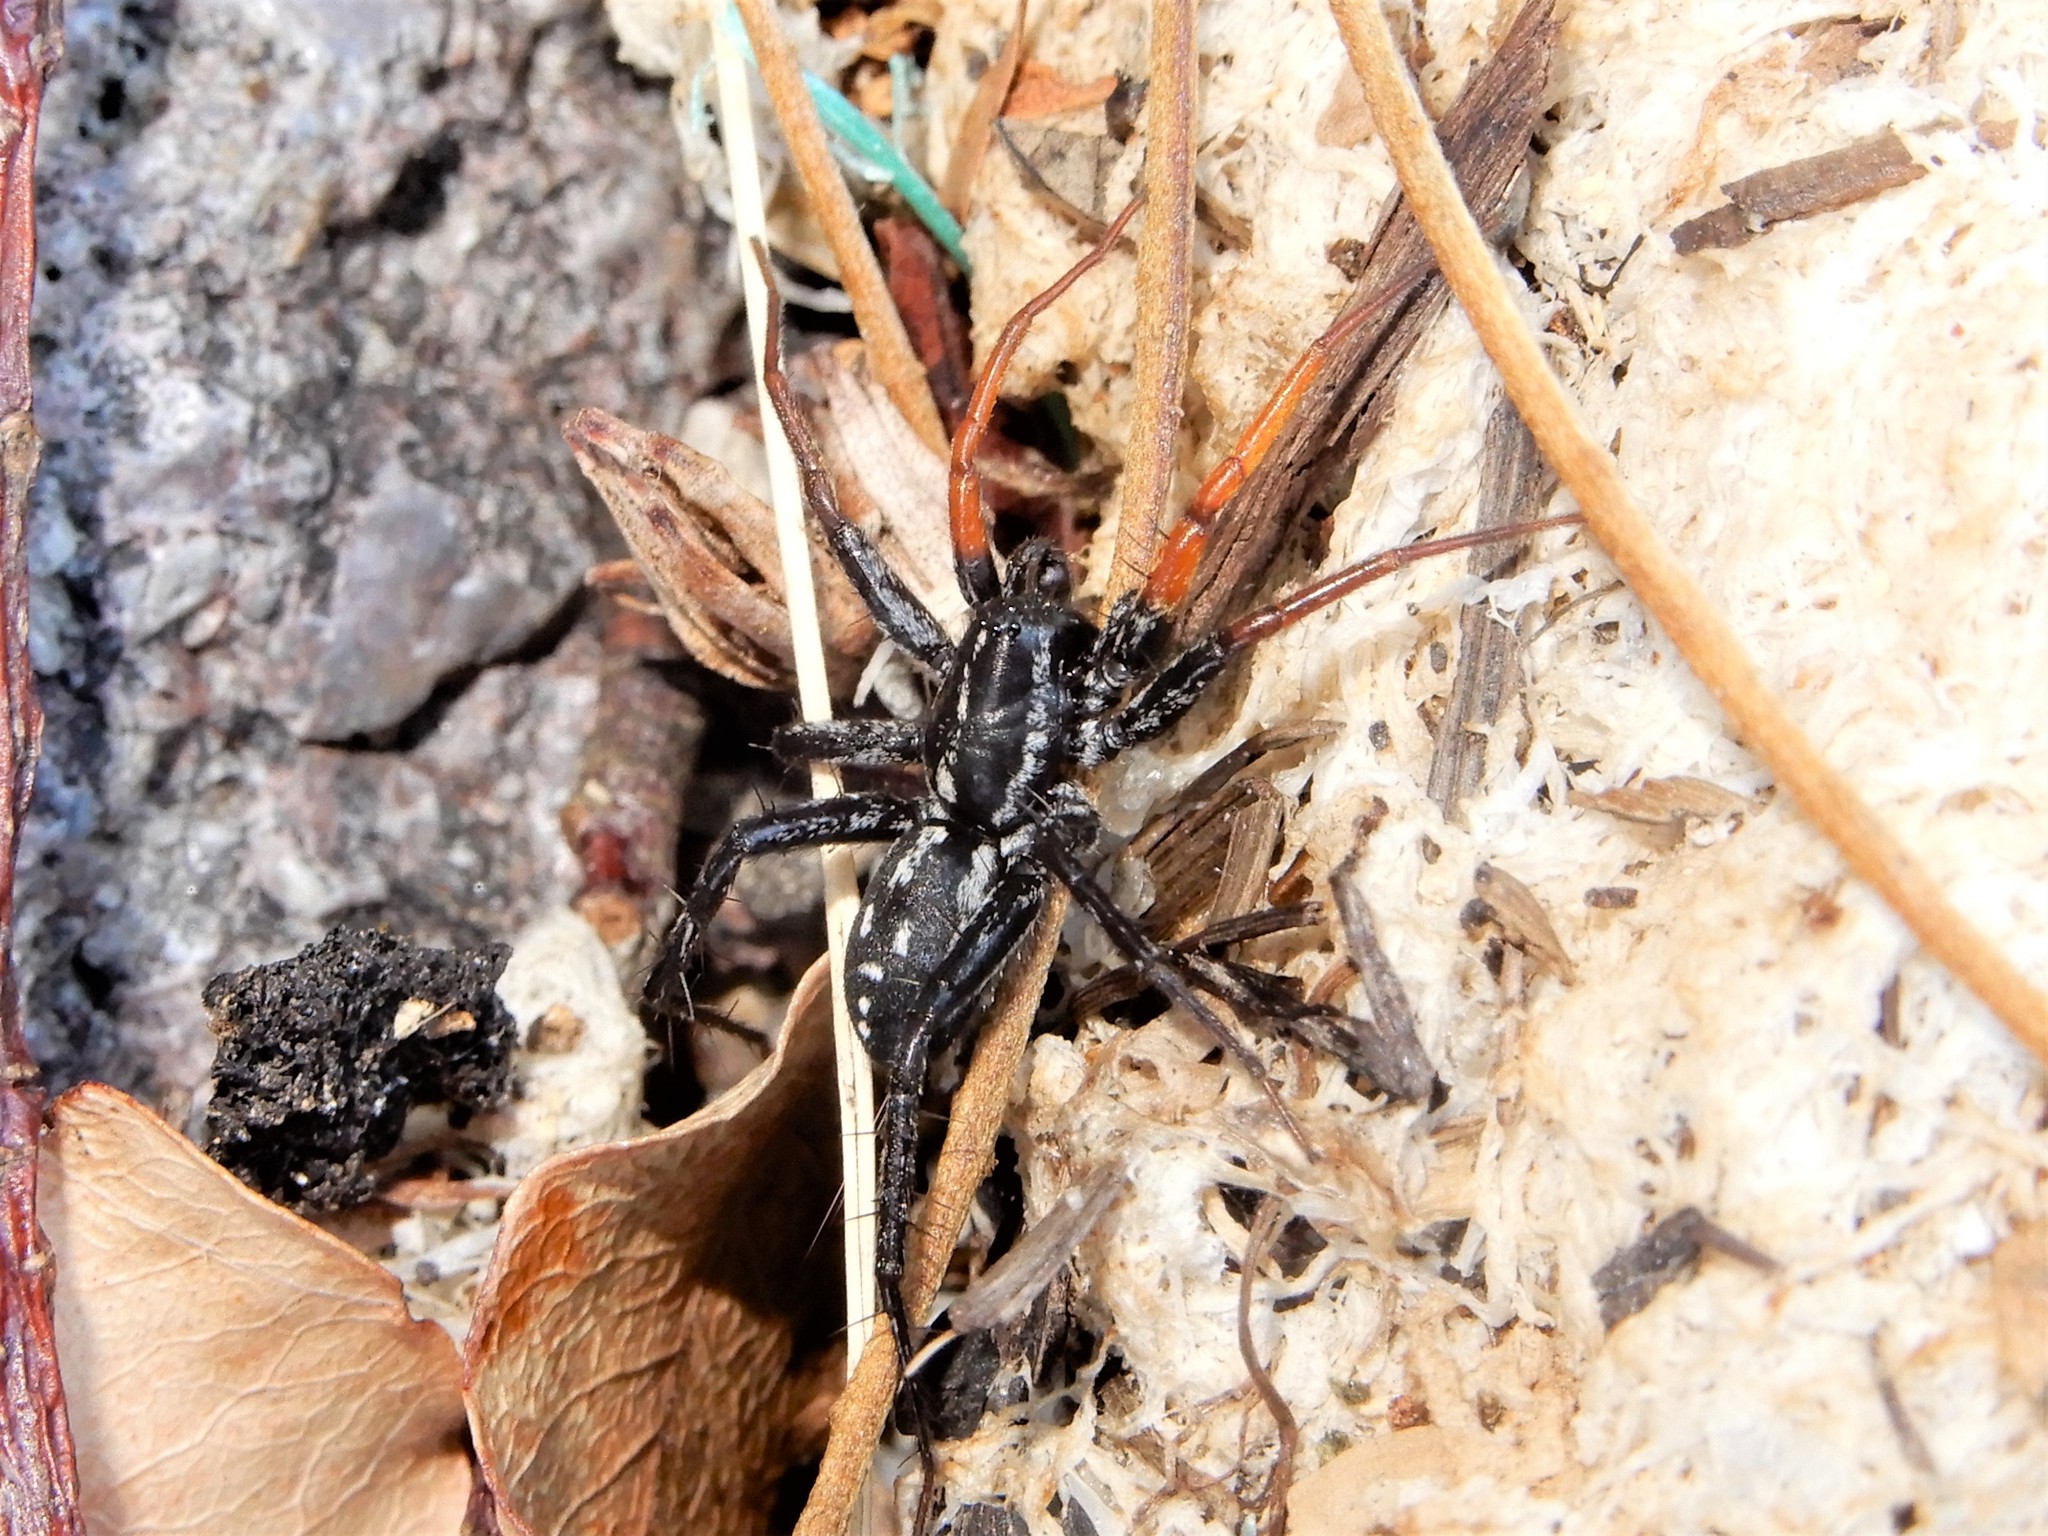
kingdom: Animalia
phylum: Arthropoda
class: Arachnida
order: Araneae
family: Corinnidae
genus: Nyssus
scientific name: Nyssus coloripes
